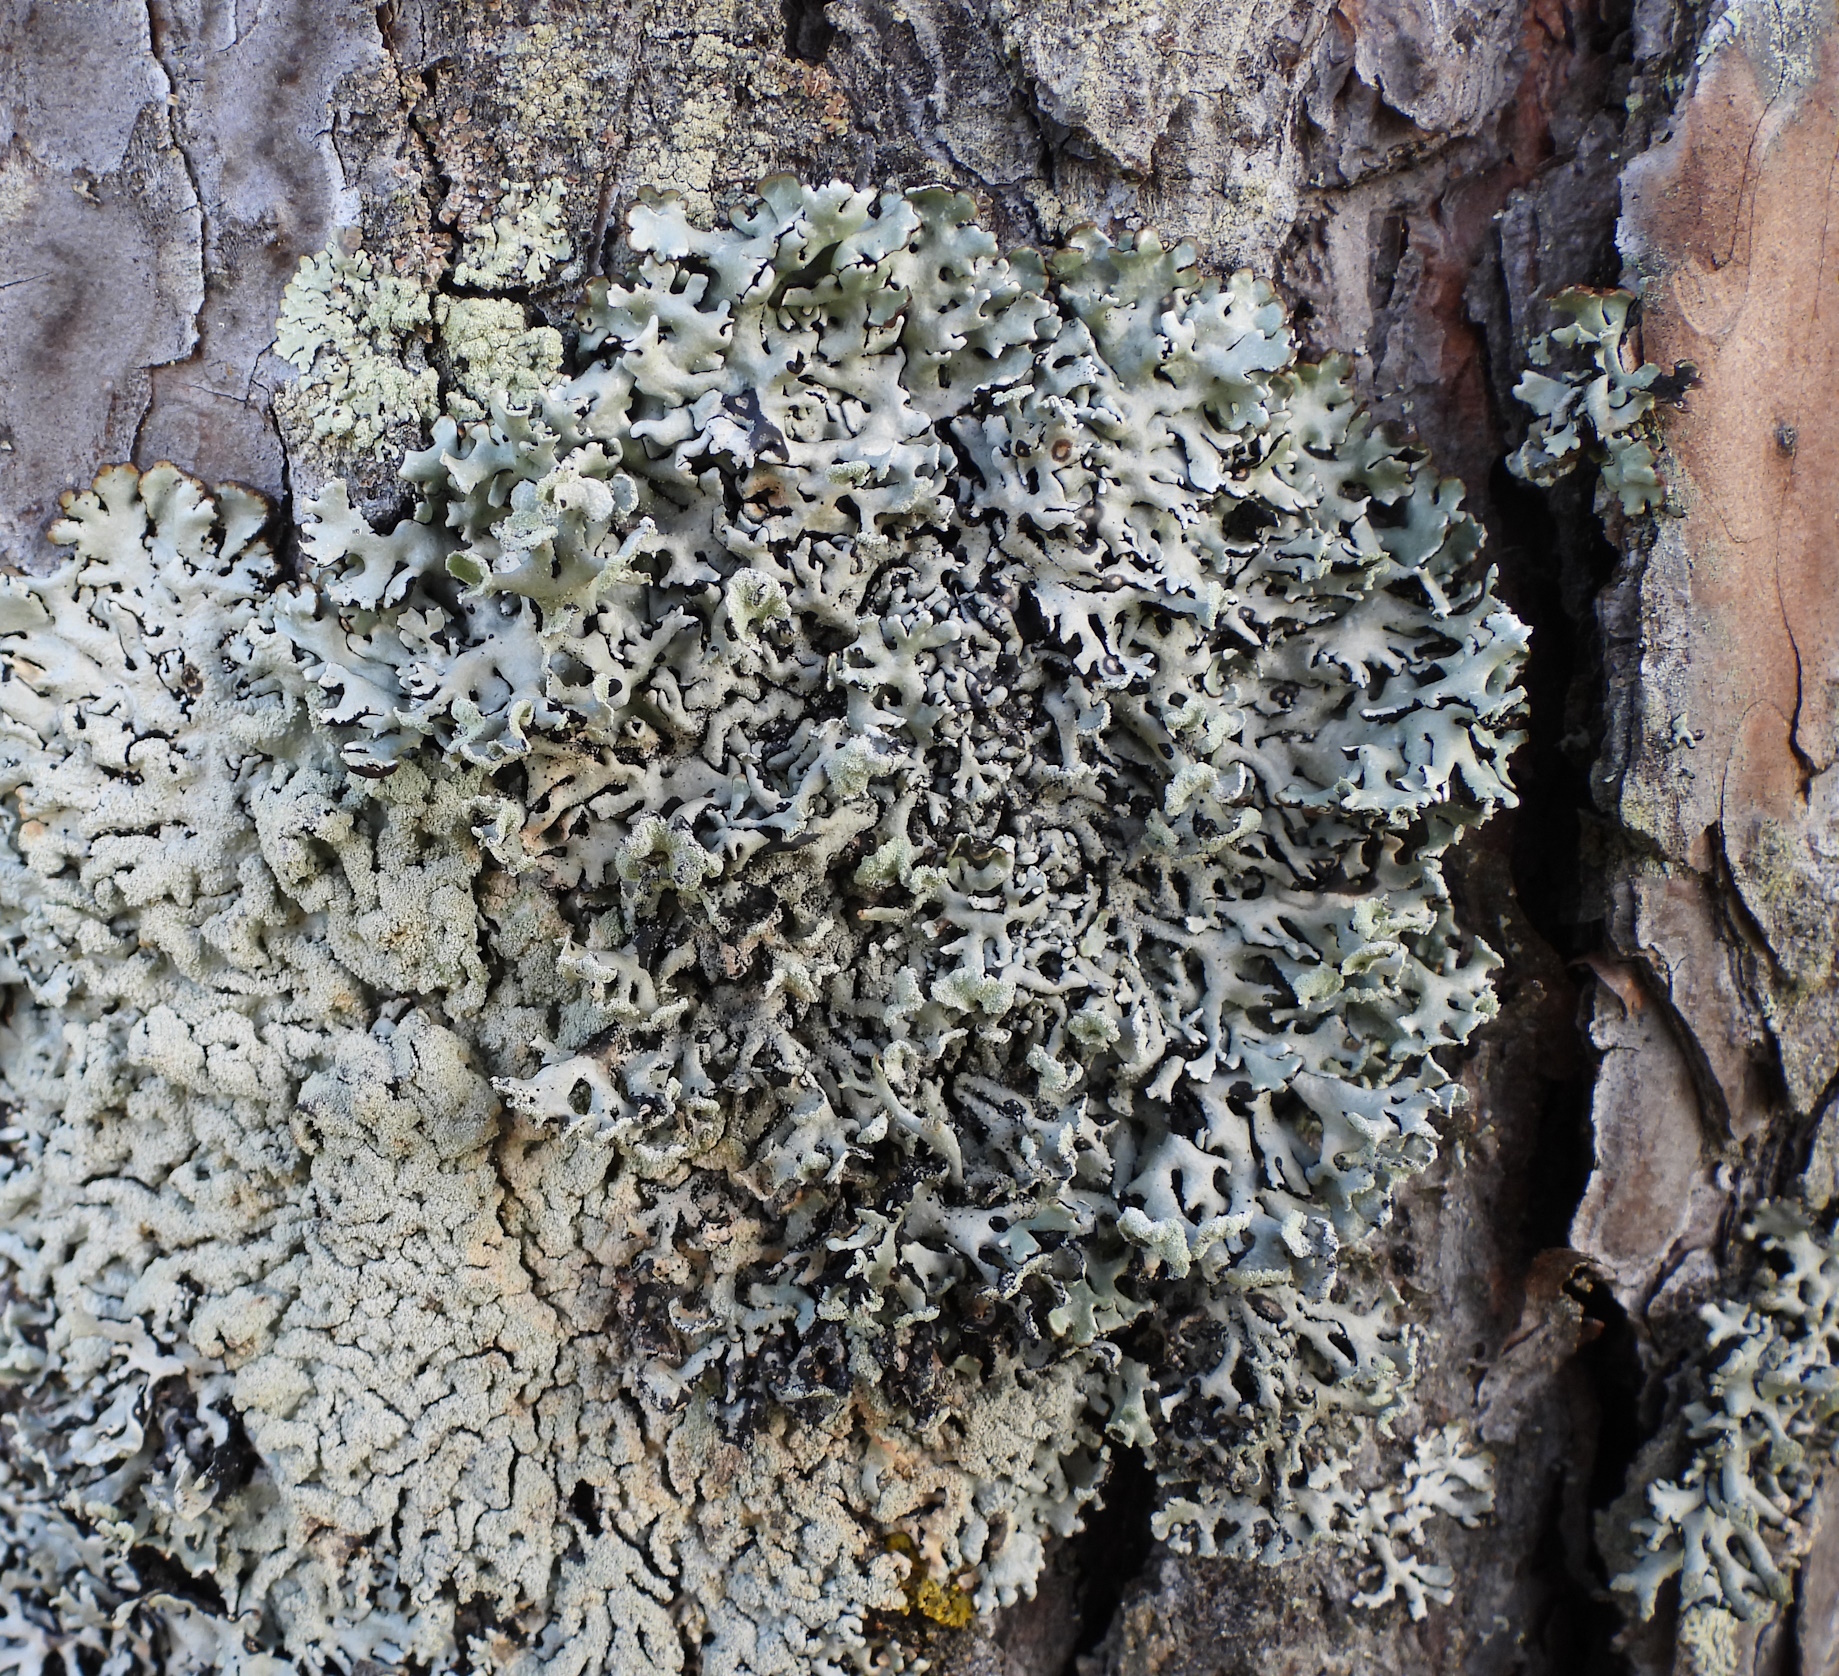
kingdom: Fungi
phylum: Ascomycota
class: Lecanoromycetes
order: Lecanorales
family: Parmeliaceae
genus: Hypogymnia
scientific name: Hypogymnia physodes
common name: Dark crottle
